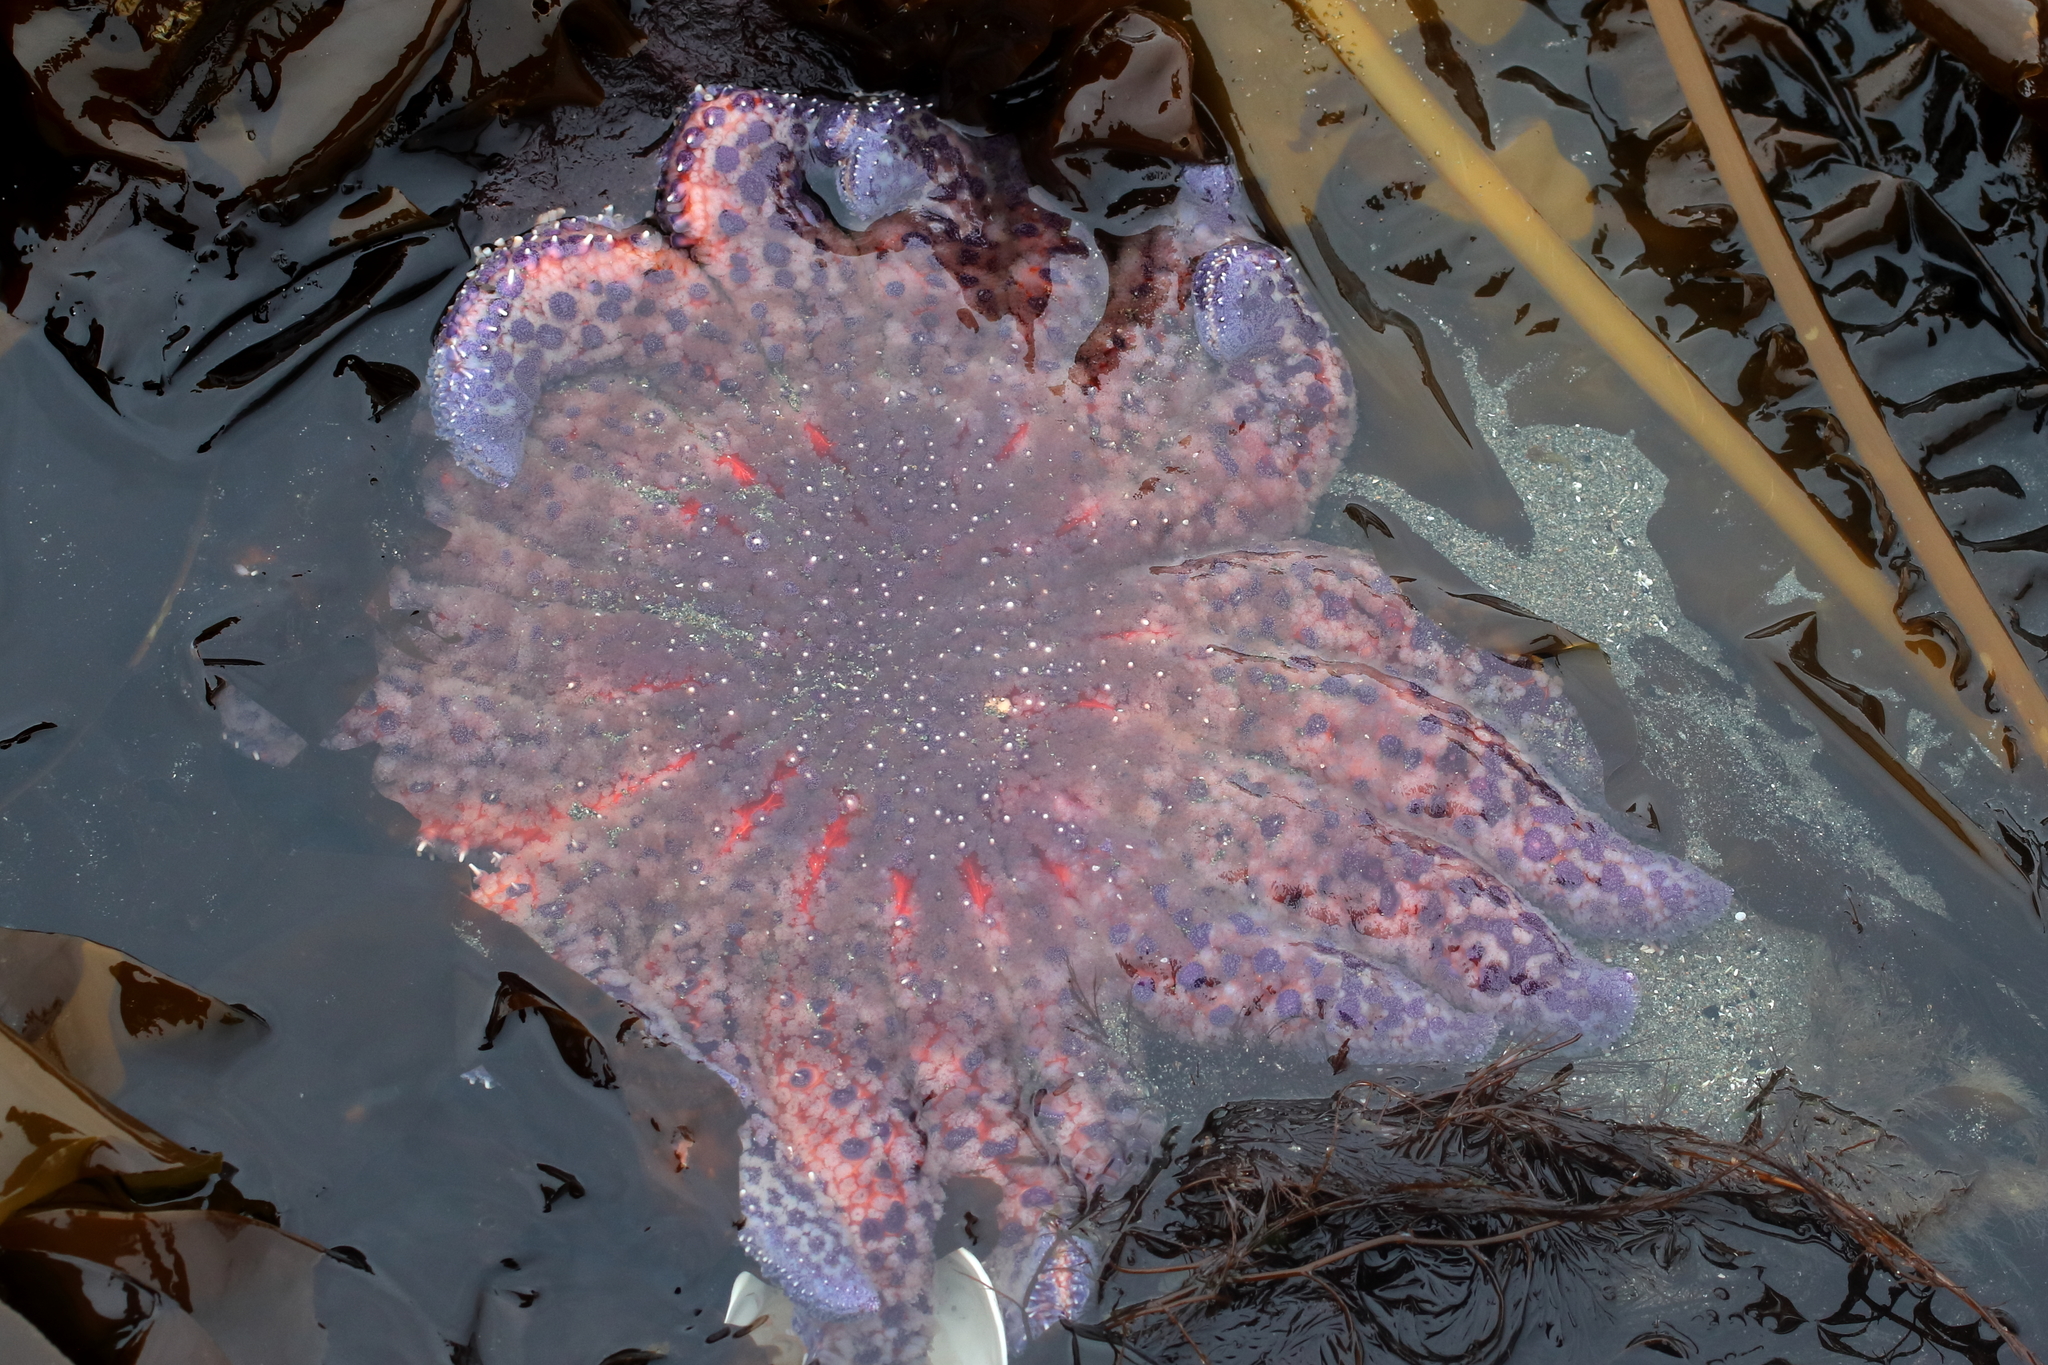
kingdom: Animalia
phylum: Echinodermata
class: Asteroidea
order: Forcipulatida
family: Asteriidae
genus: Pycnopodia
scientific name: Pycnopodia helianthoides
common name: Rag mop
